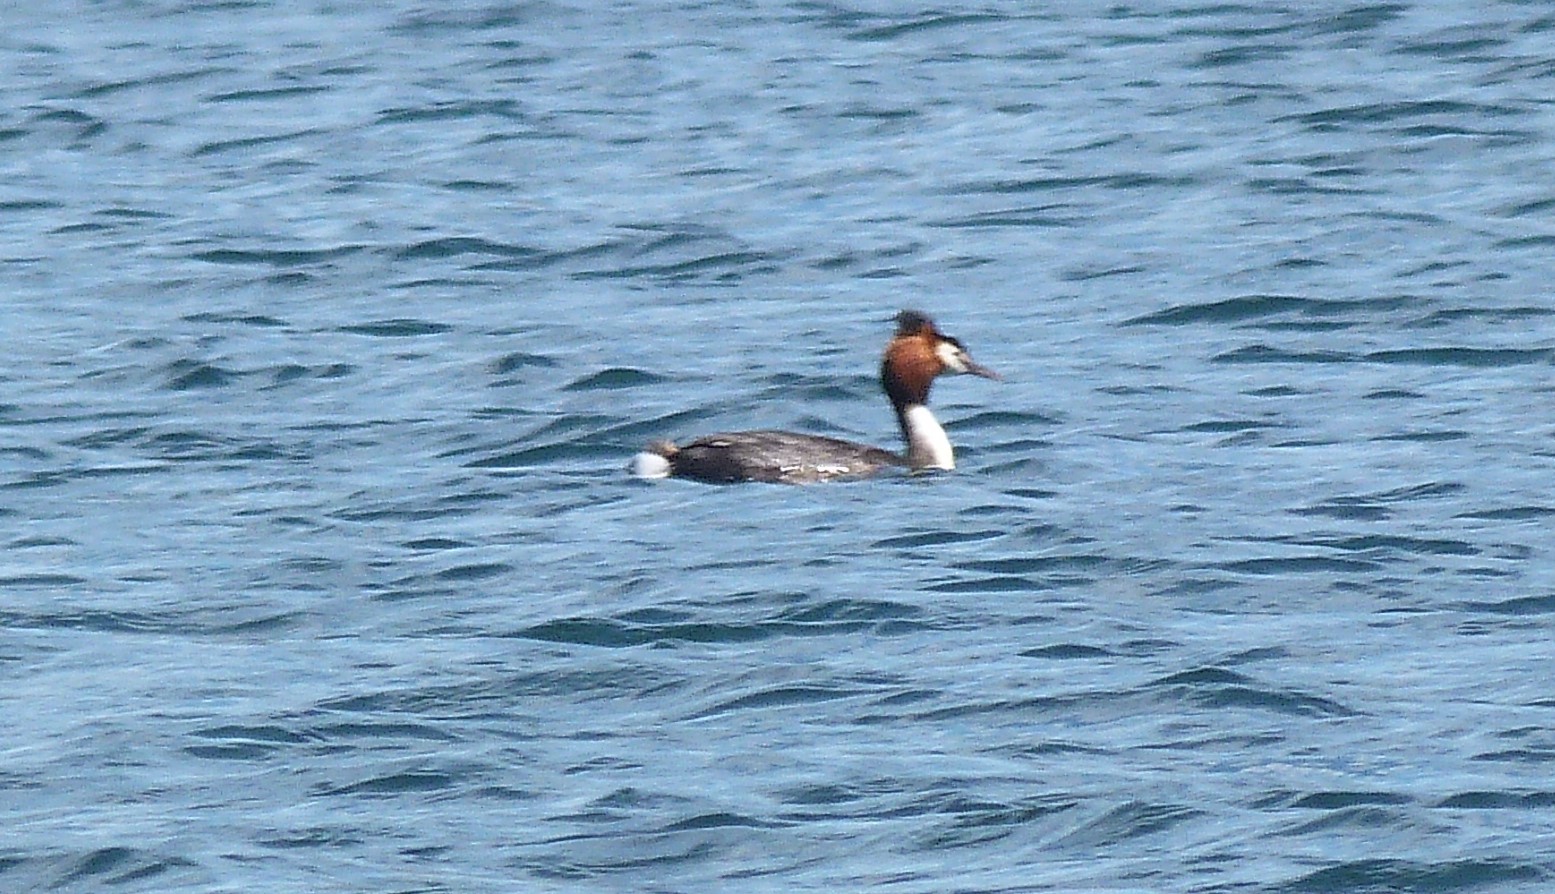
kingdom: Animalia
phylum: Chordata
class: Aves
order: Podicipediformes
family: Podicipedidae
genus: Podiceps
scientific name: Podiceps cristatus
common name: Great crested grebe
